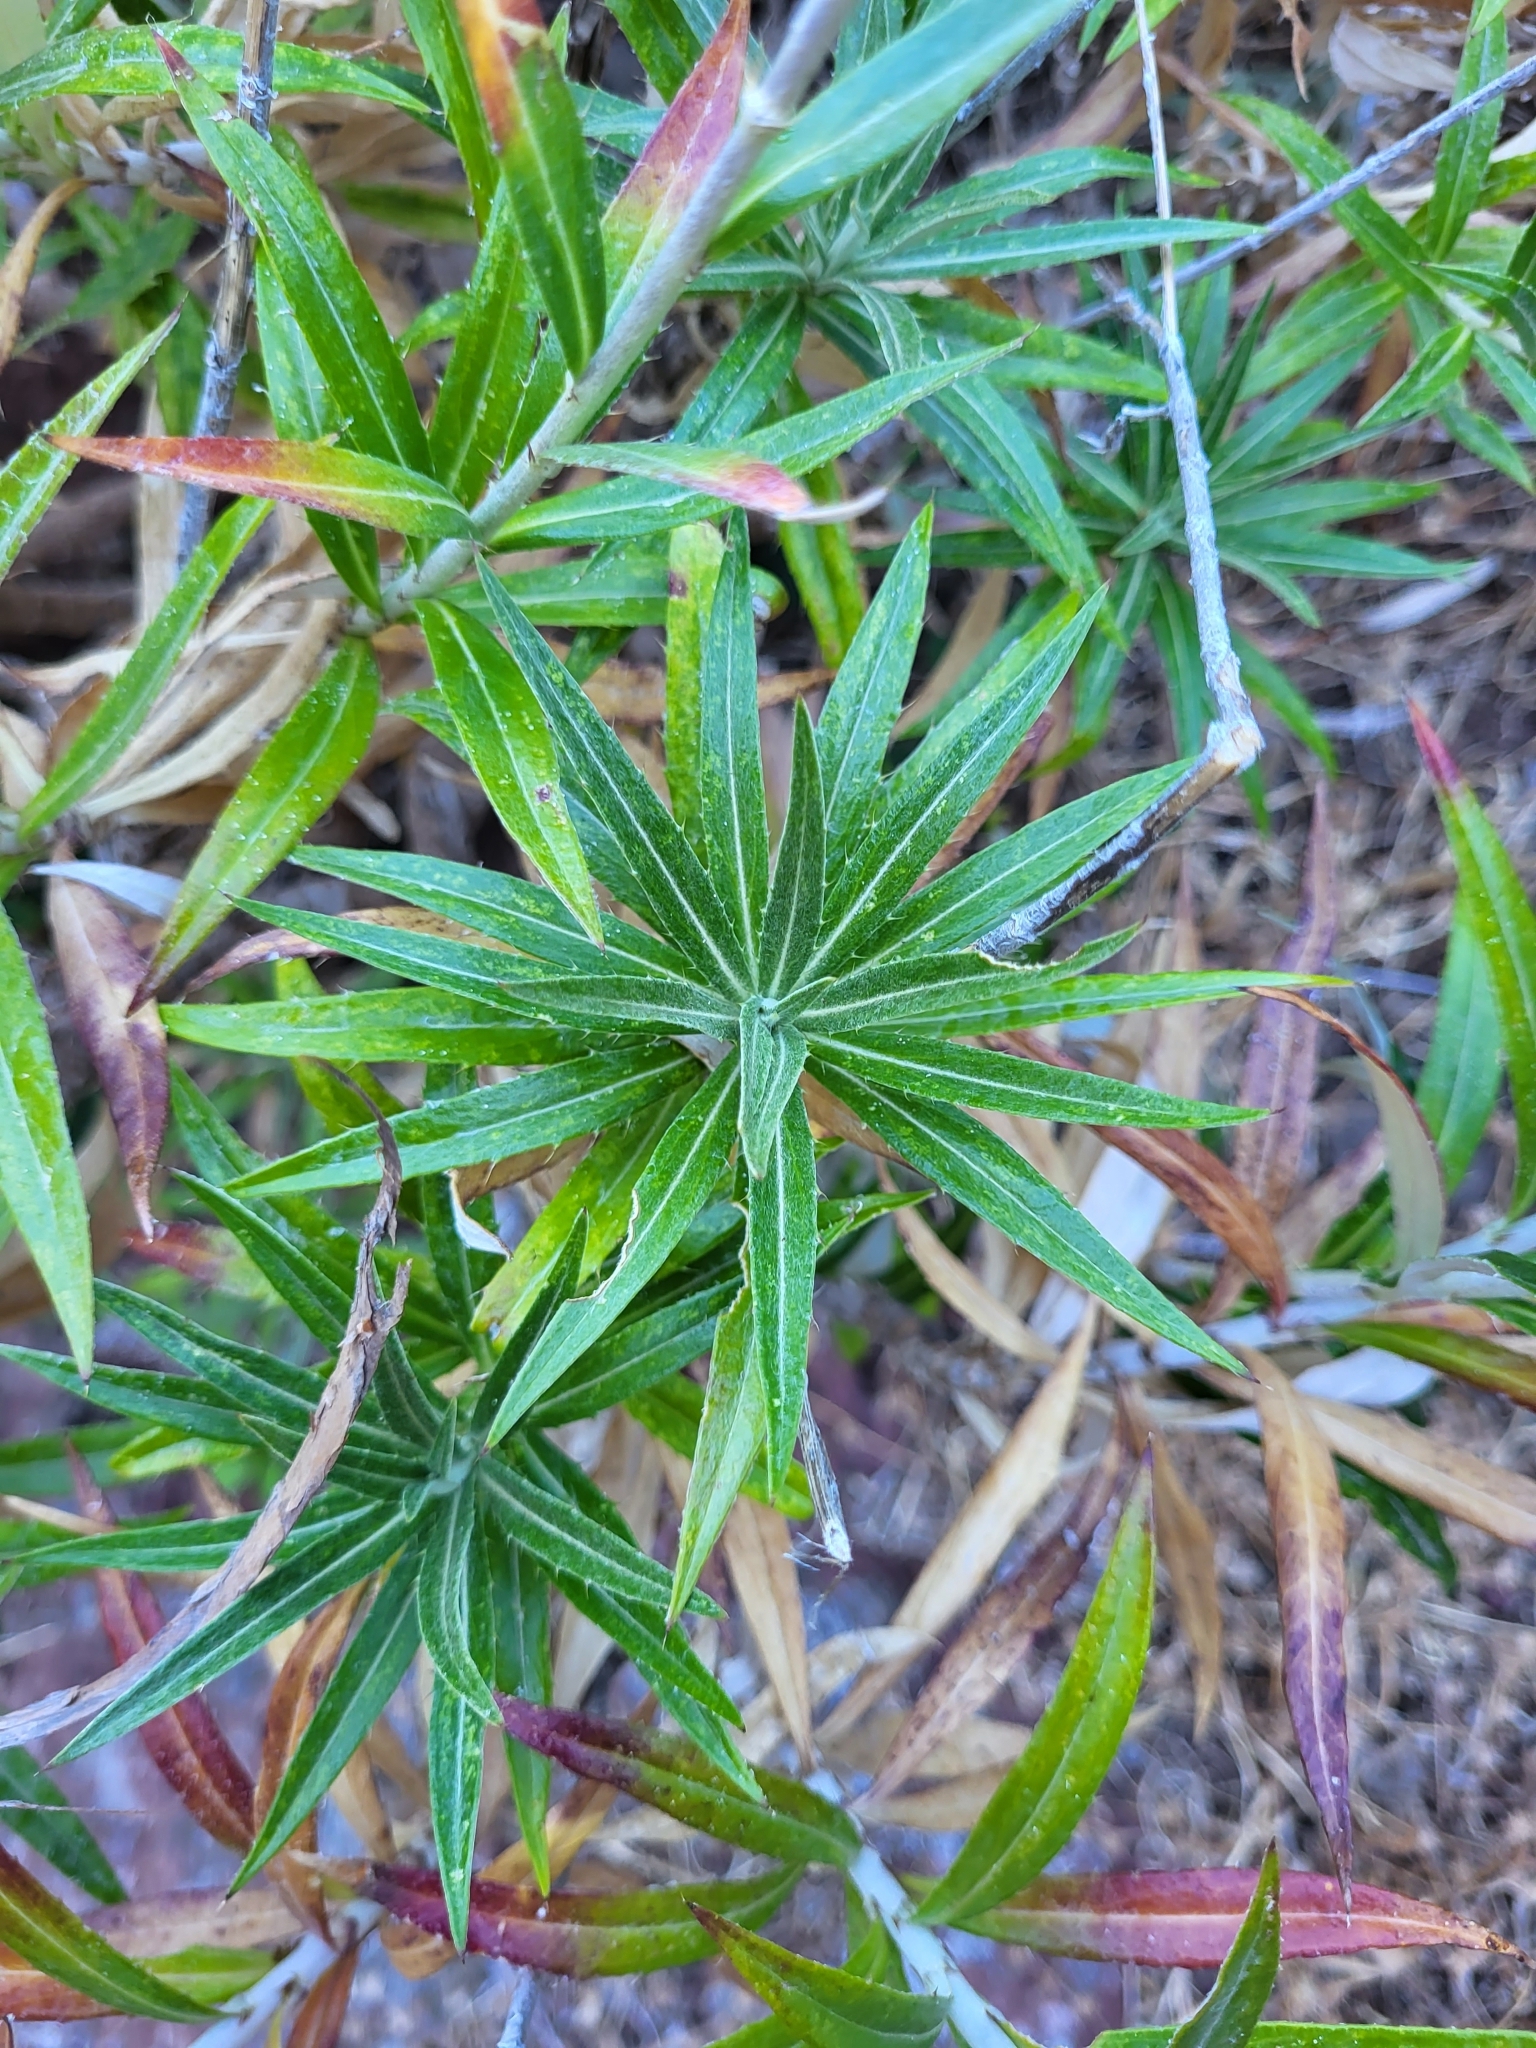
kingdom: Plantae
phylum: Tracheophyta
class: Magnoliopsida
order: Asterales
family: Asteraceae
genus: Carlina
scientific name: Carlina salicifolia
